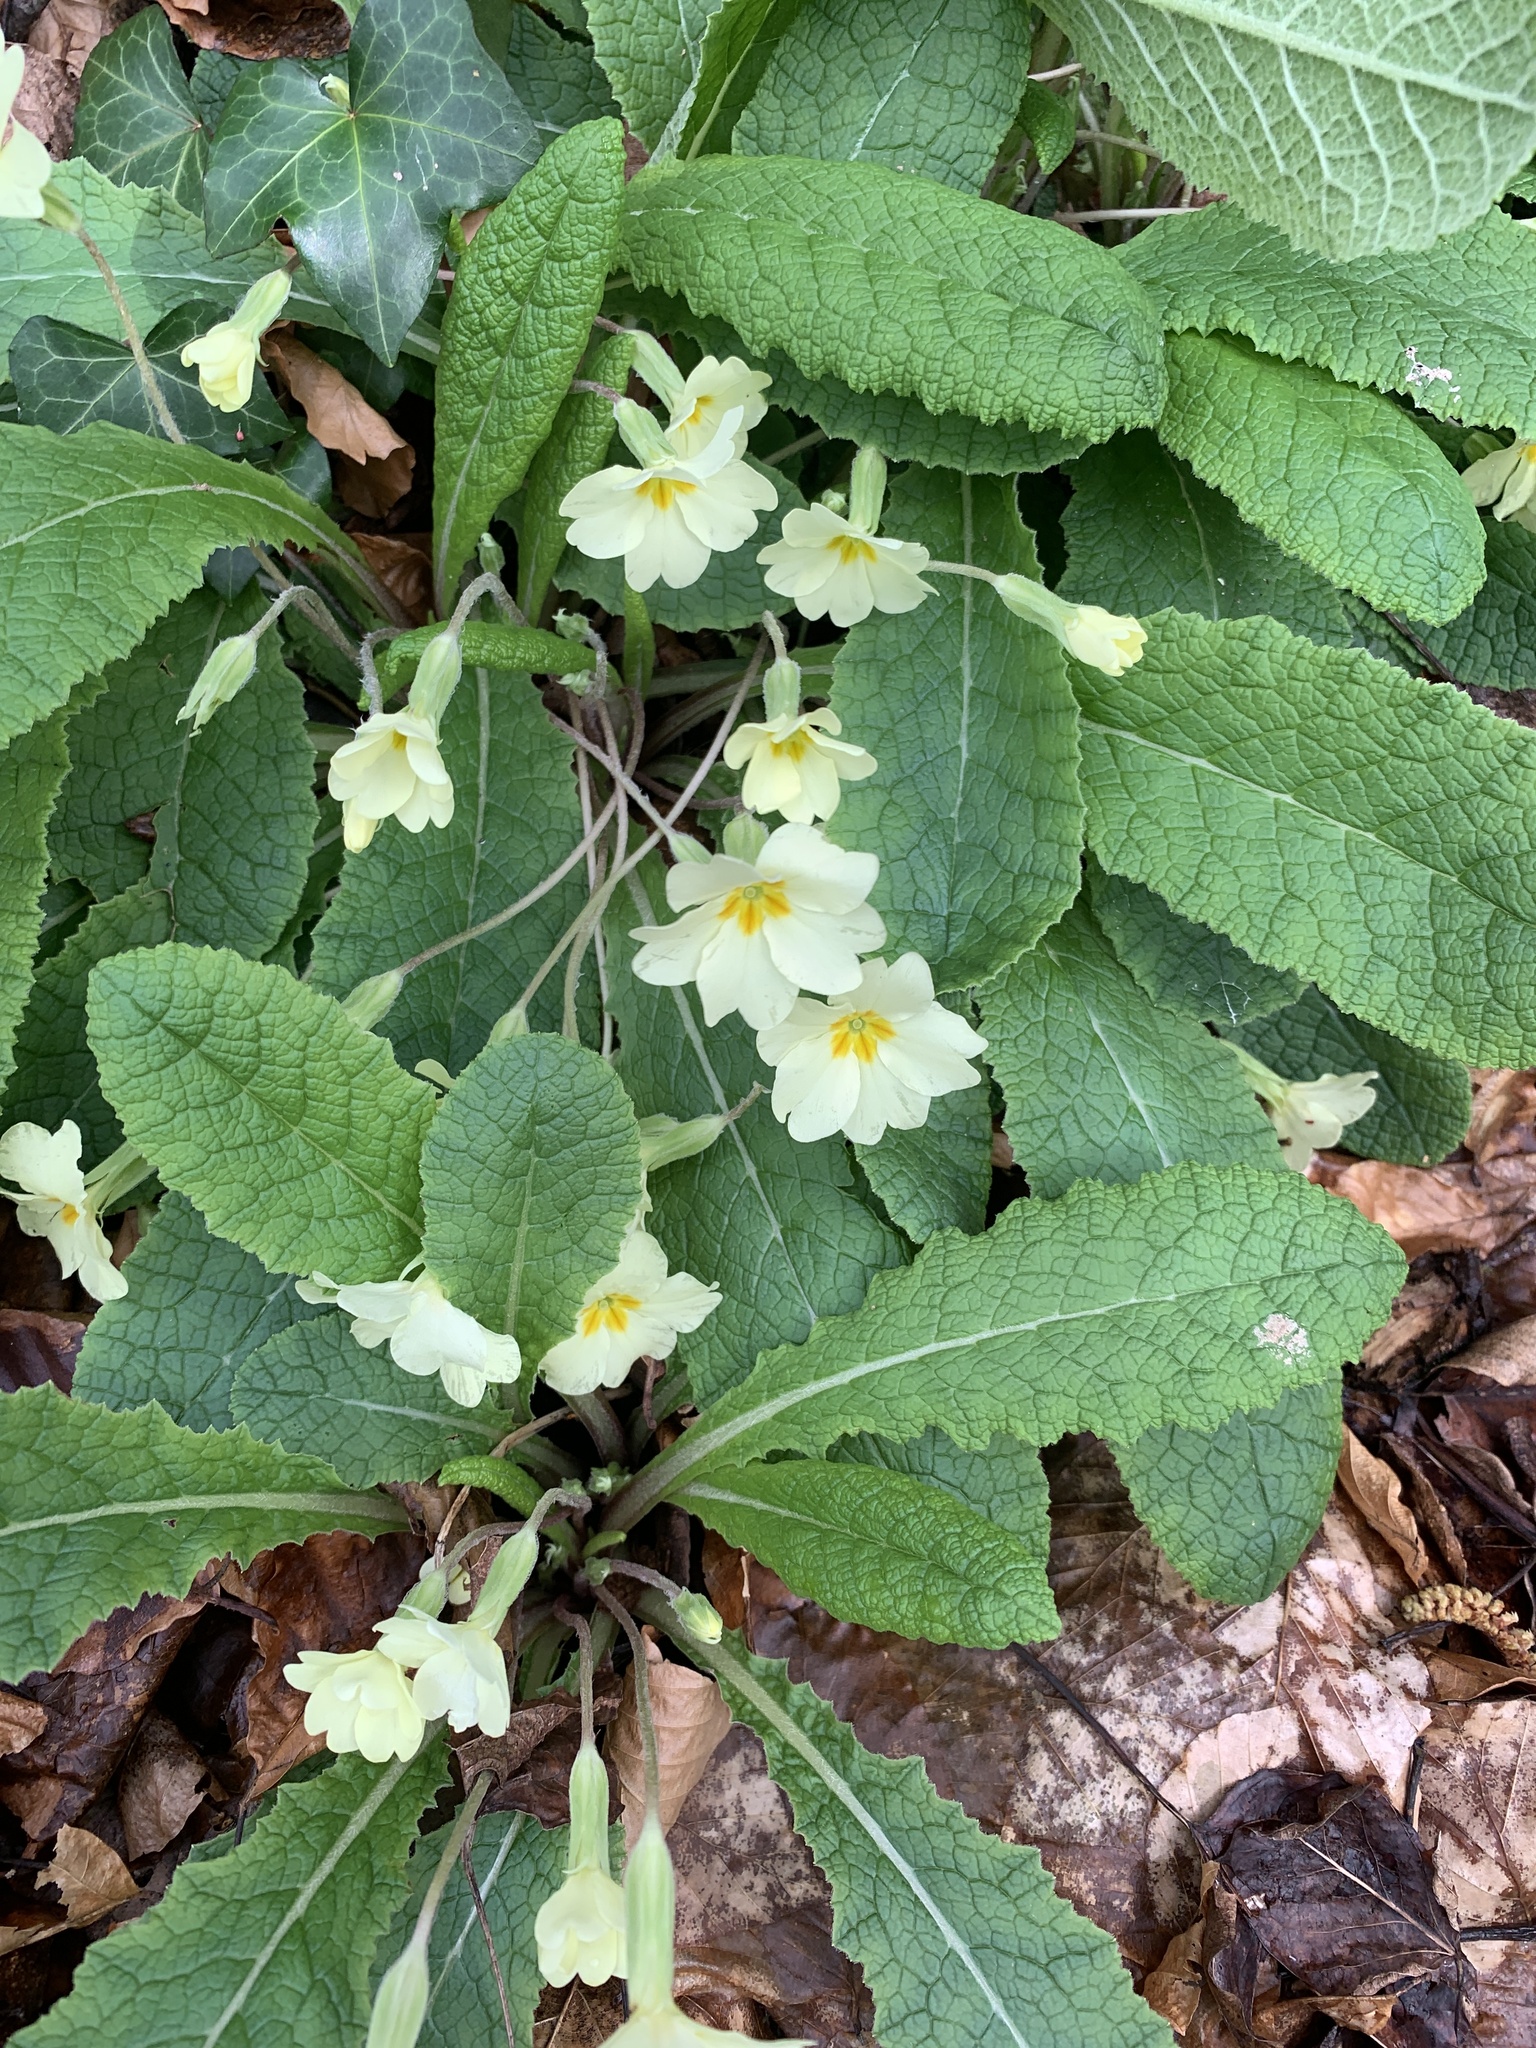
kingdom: Plantae
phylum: Tracheophyta
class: Magnoliopsida
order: Ericales
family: Primulaceae
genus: Primula
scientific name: Primula vulgaris
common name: Primrose
